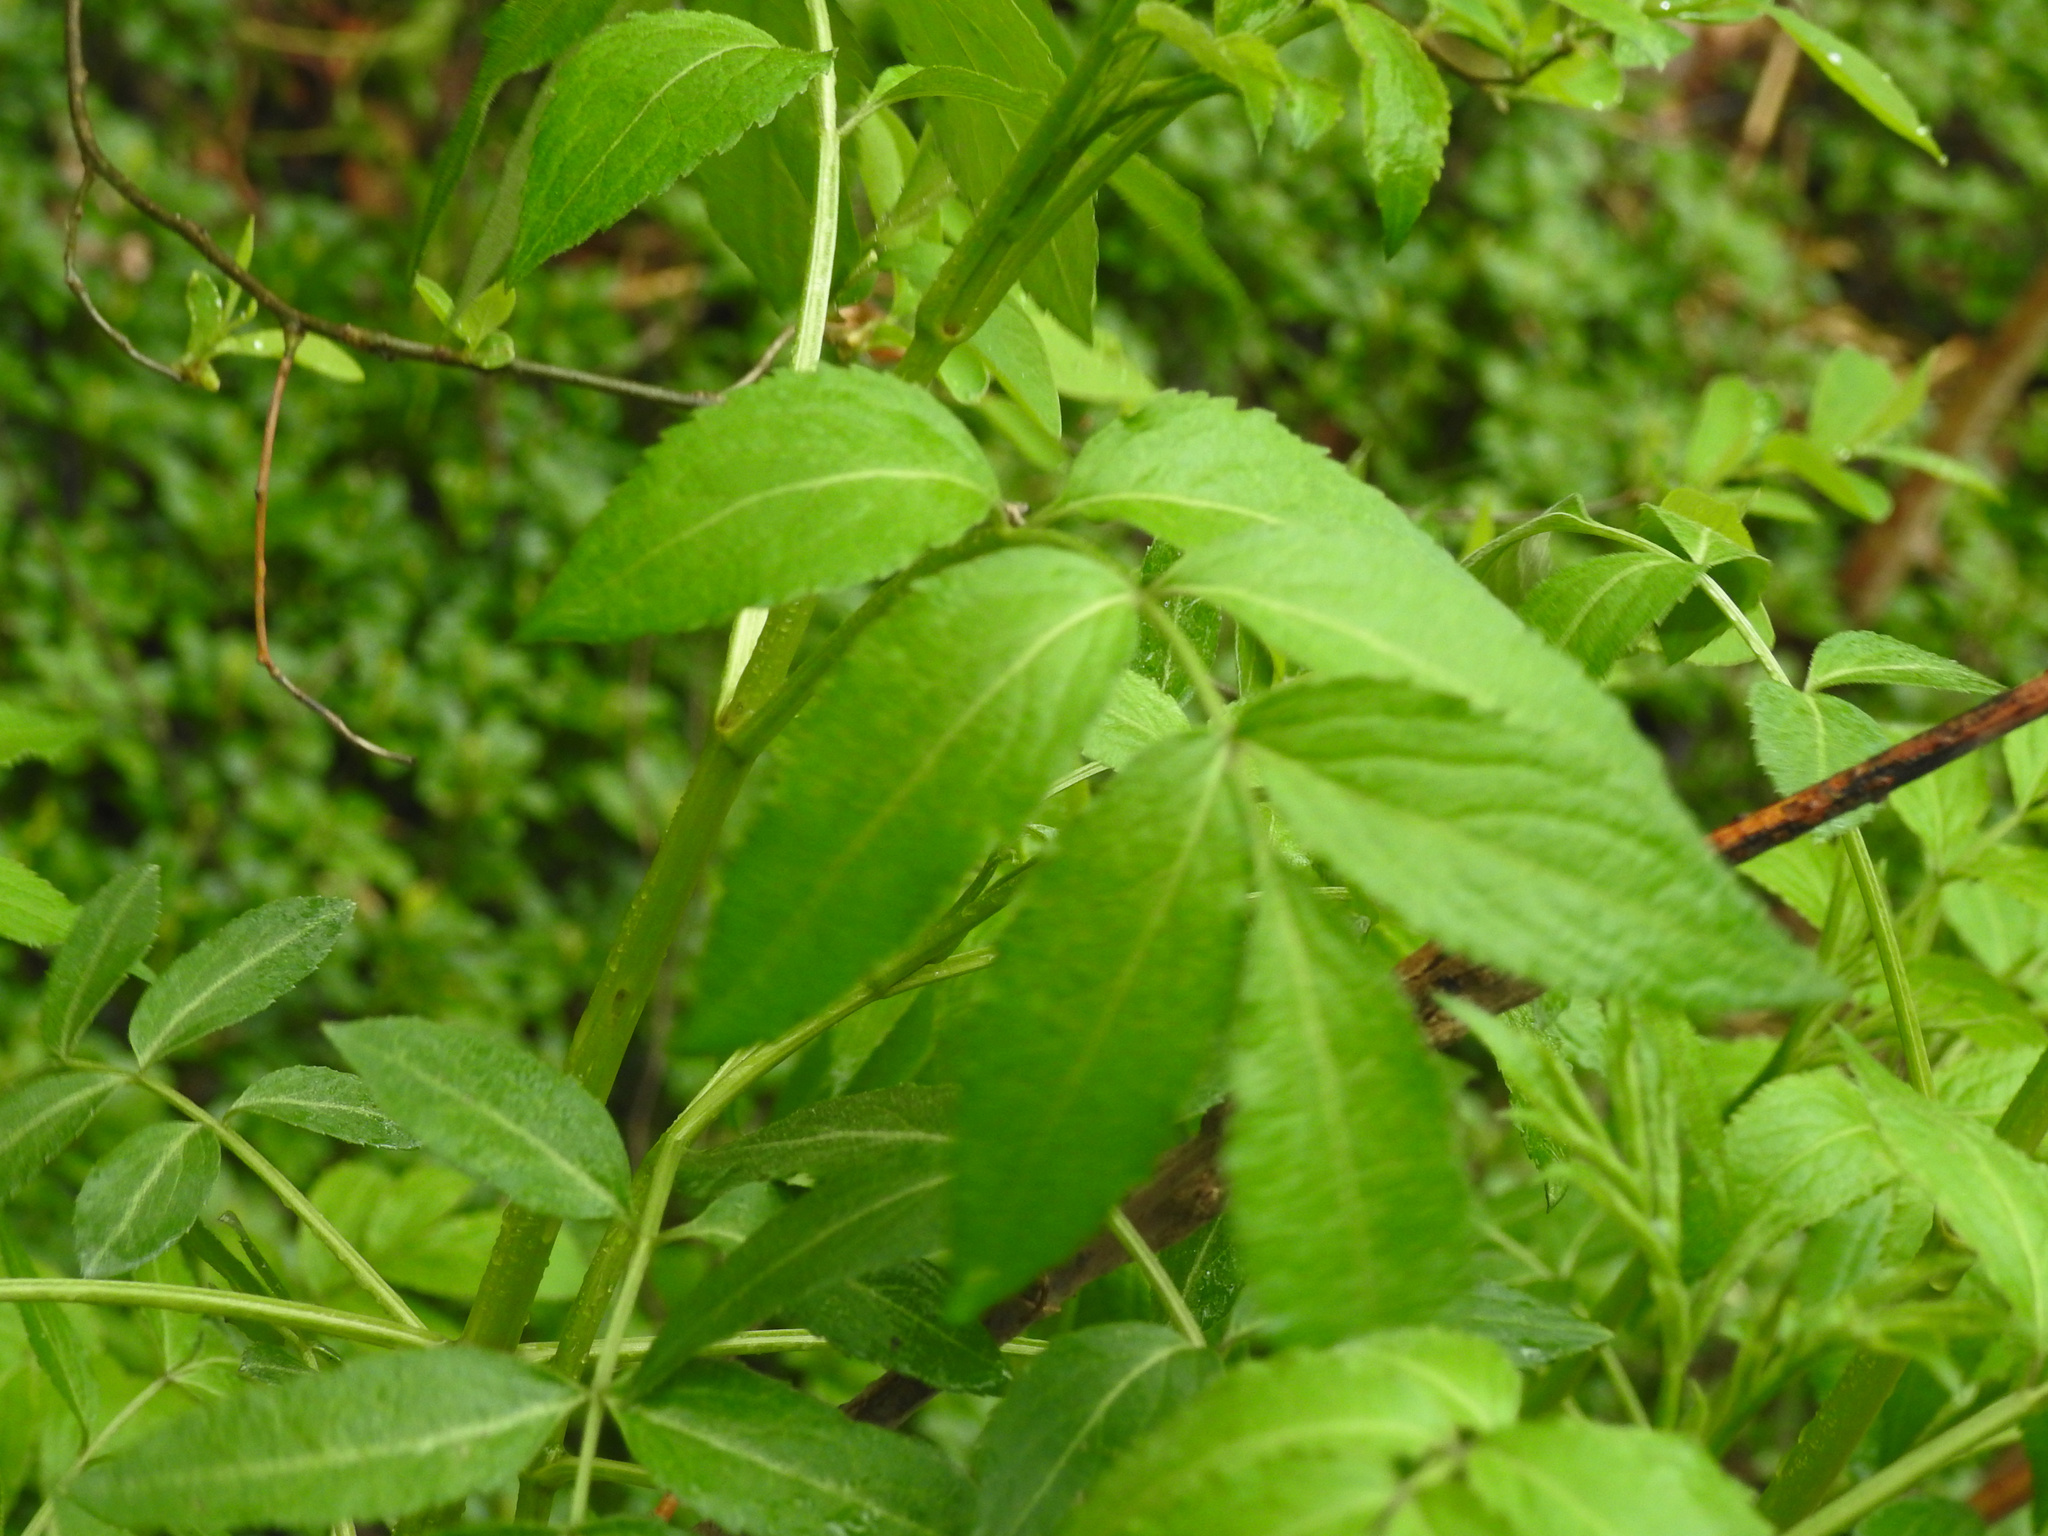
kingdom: Plantae
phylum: Tracheophyta
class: Magnoliopsida
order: Dipsacales
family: Viburnaceae
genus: Sambucus
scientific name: Sambucus canadensis
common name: American elder
